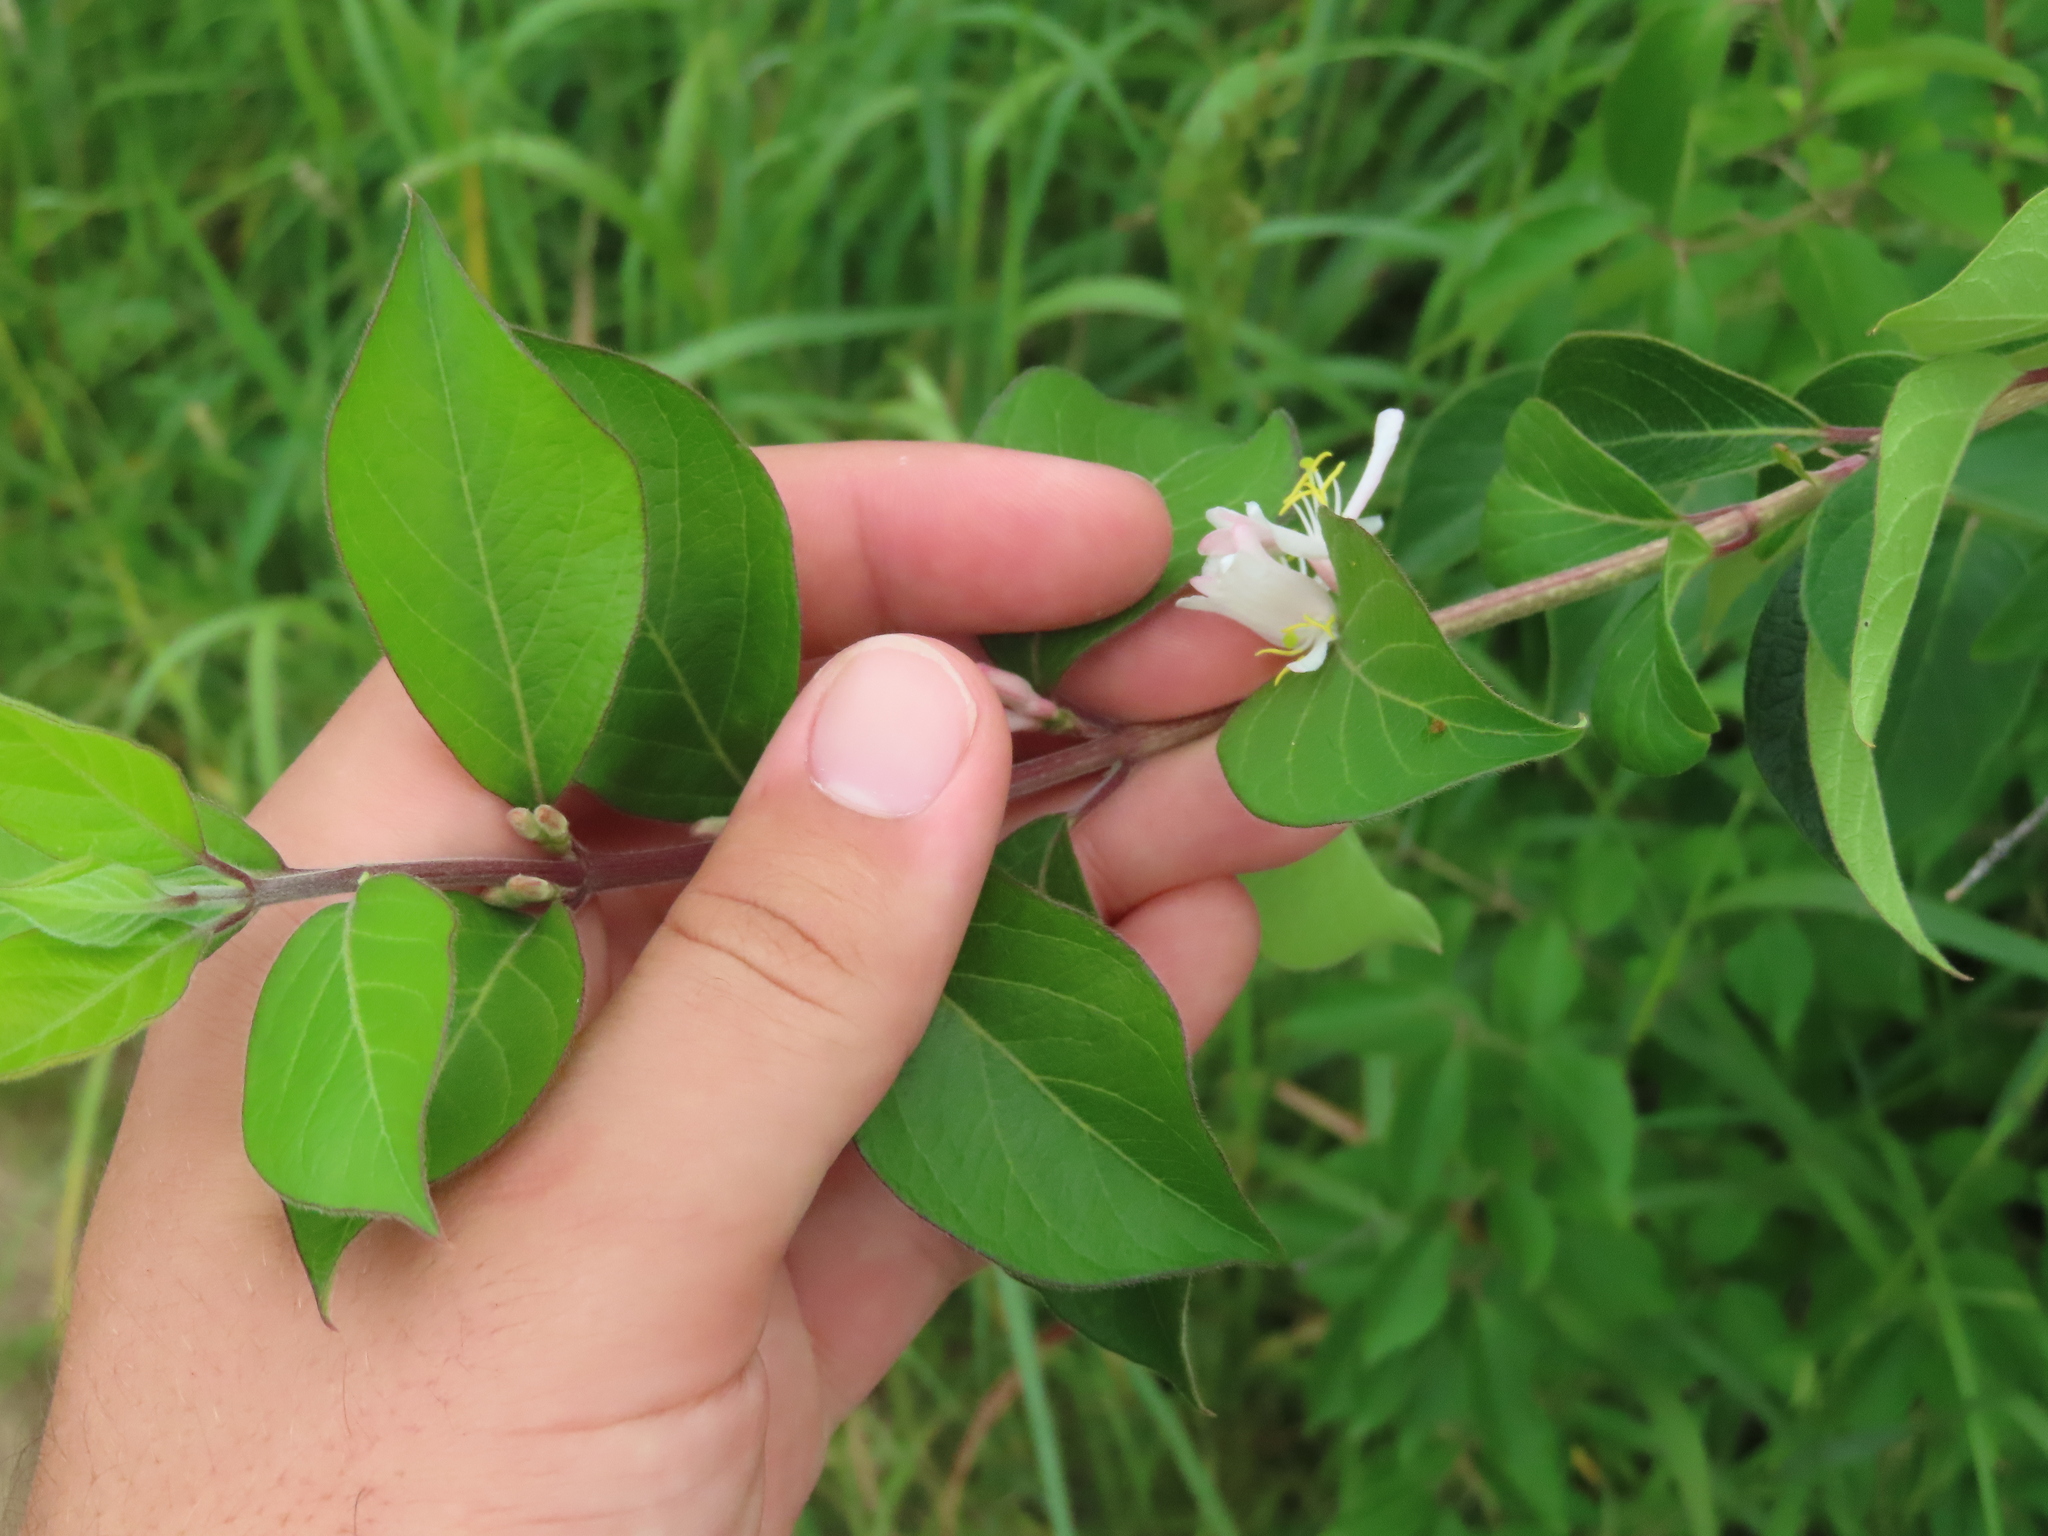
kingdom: Plantae
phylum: Tracheophyta
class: Magnoliopsida
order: Dipsacales
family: Caprifoliaceae
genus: Lonicera
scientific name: Lonicera maackii
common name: Amur honeysuckle
